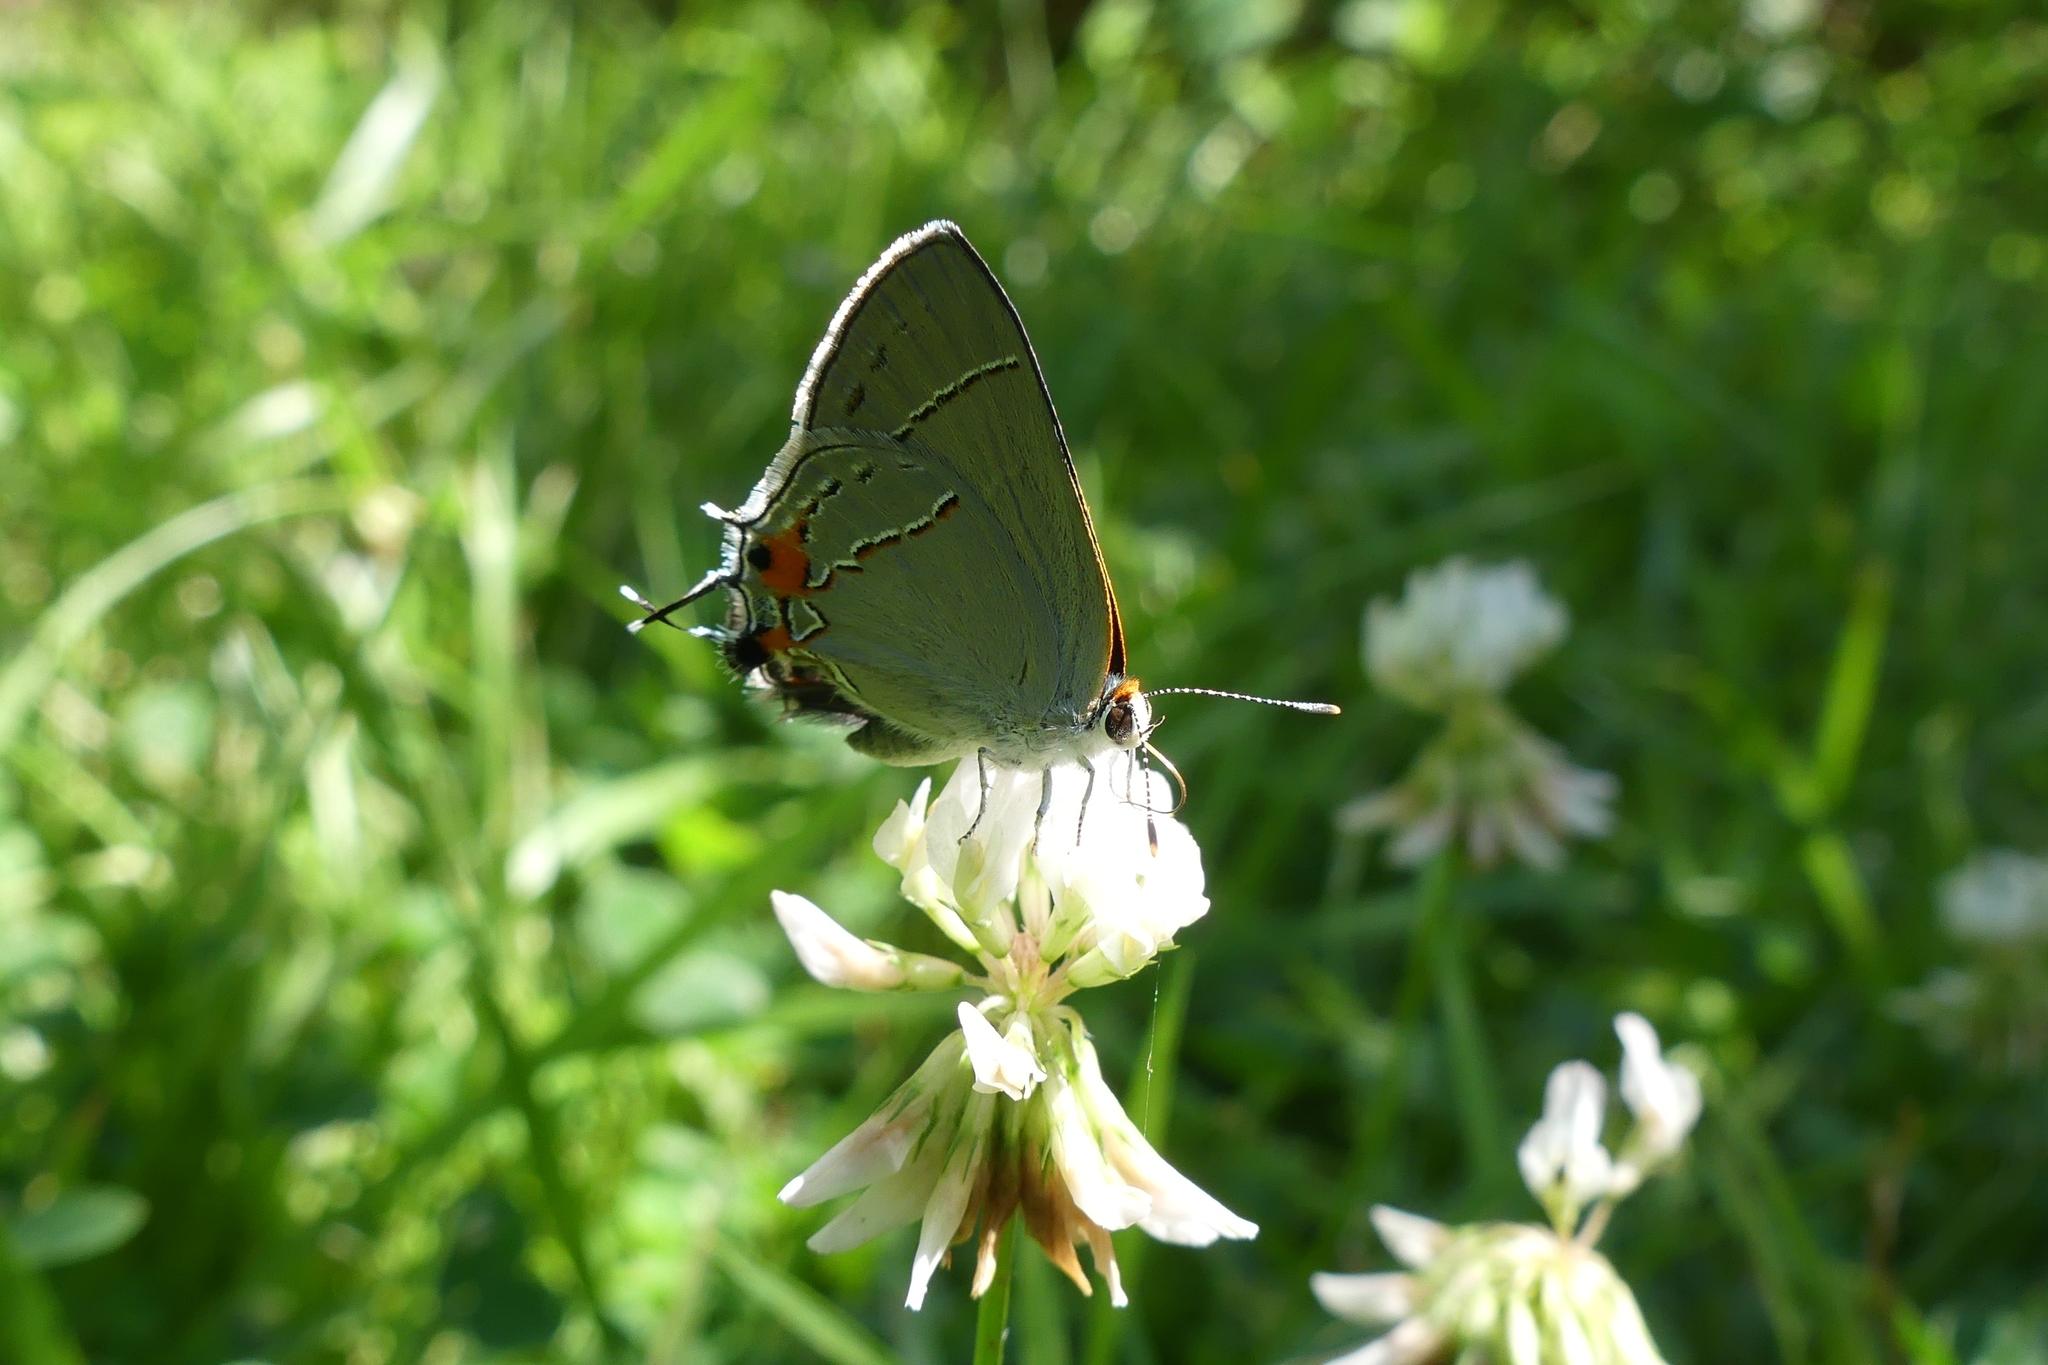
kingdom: Animalia
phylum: Arthropoda
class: Insecta
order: Lepidoptera
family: Lycaenidae
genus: Strymon
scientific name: Strymon melinus
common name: Gray hairstreak
